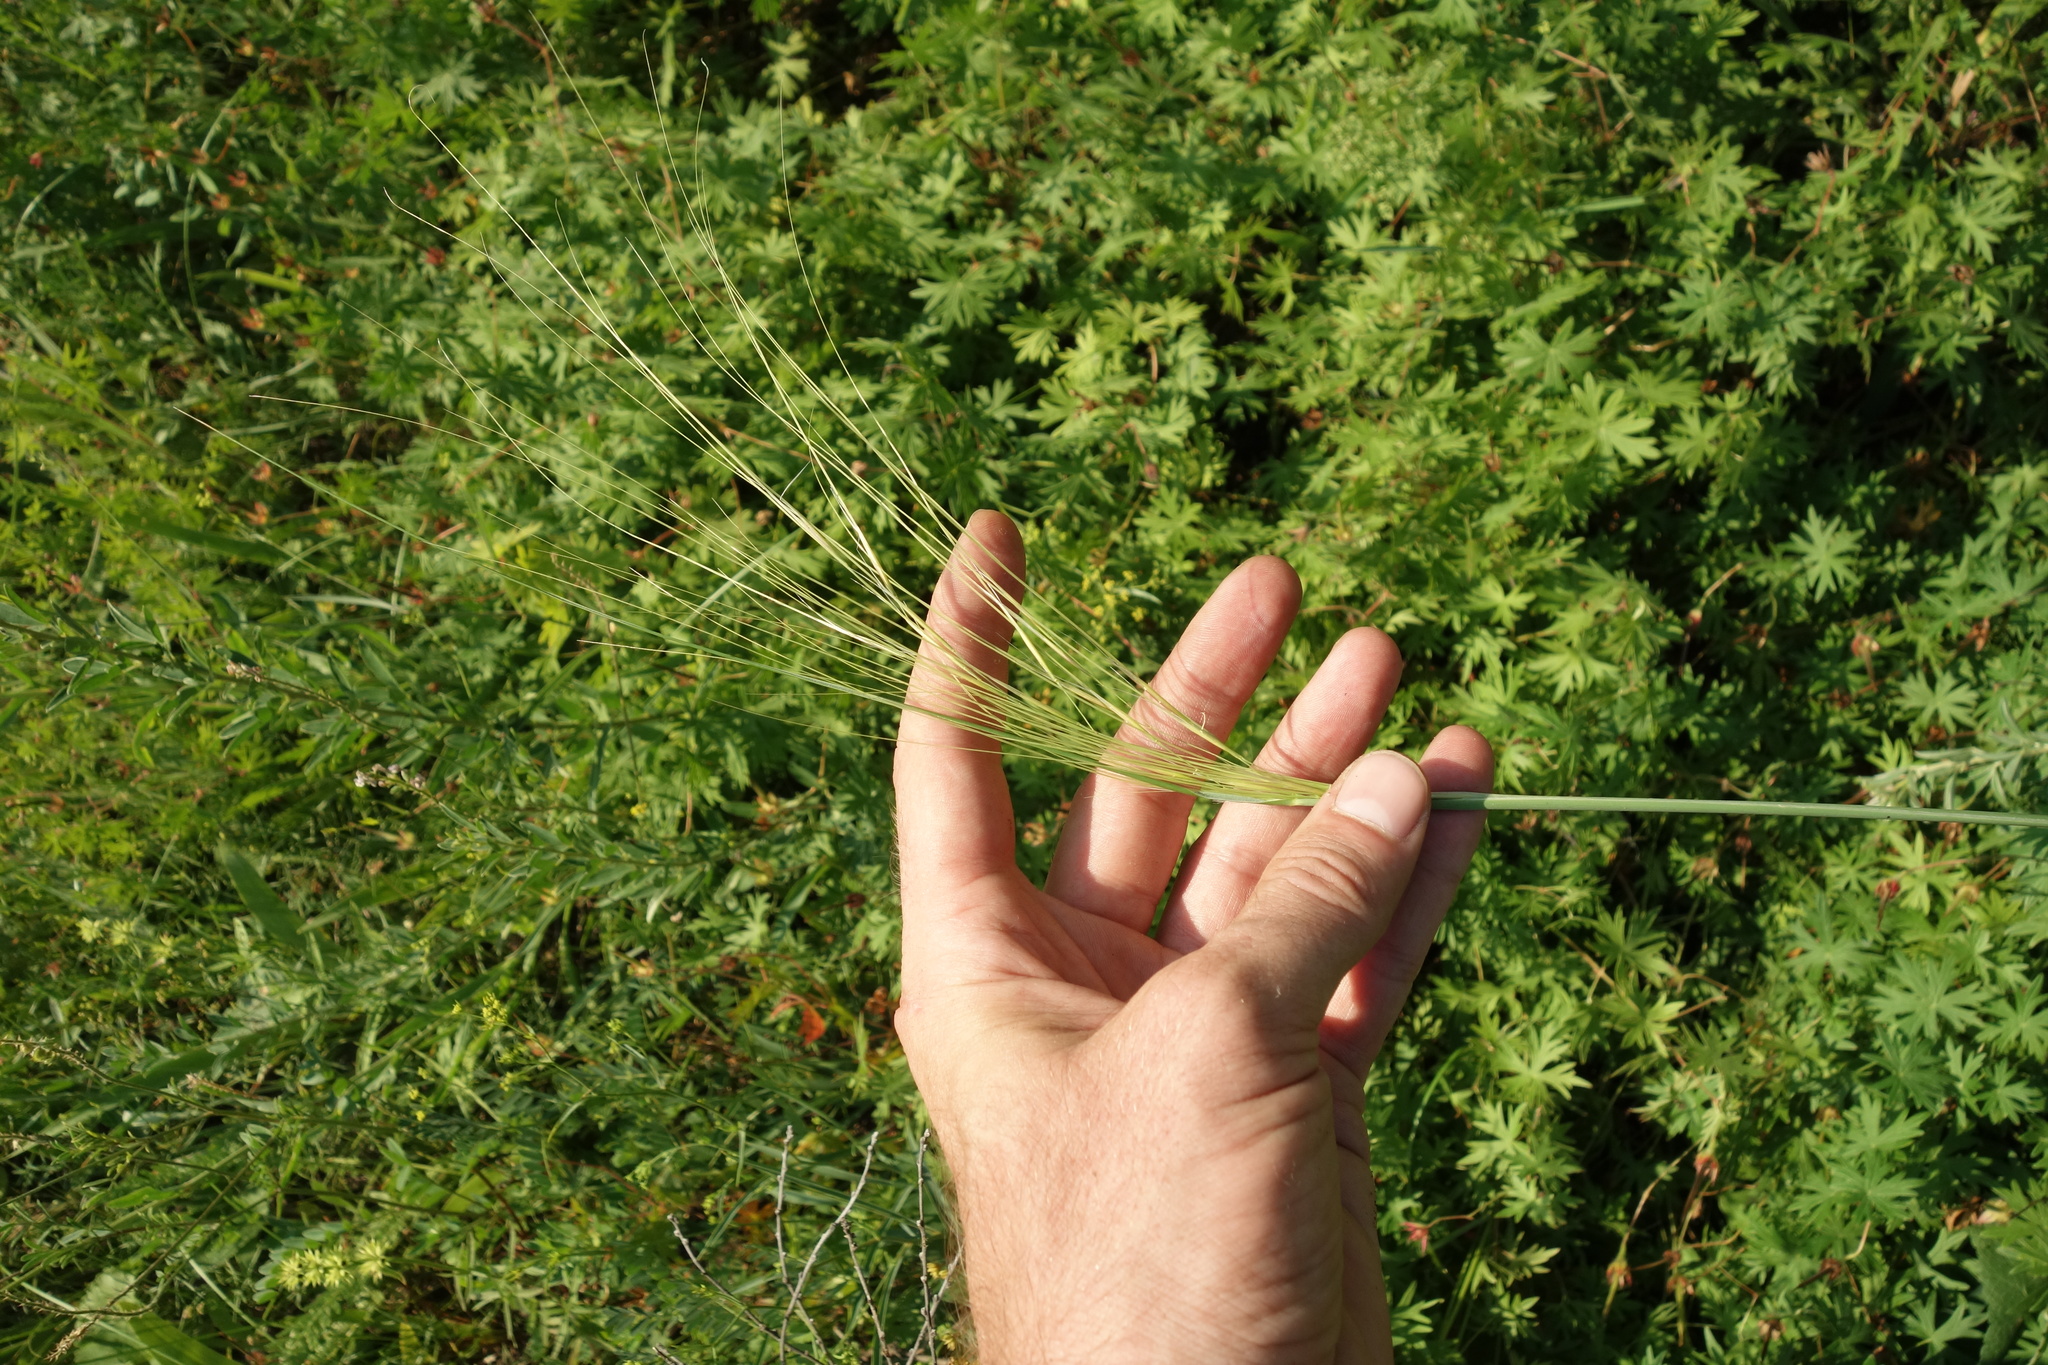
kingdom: Plantae
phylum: Tracheophyta
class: Liliopsida
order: Poales
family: Poaceae
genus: Stipa
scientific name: Stipa capillata
